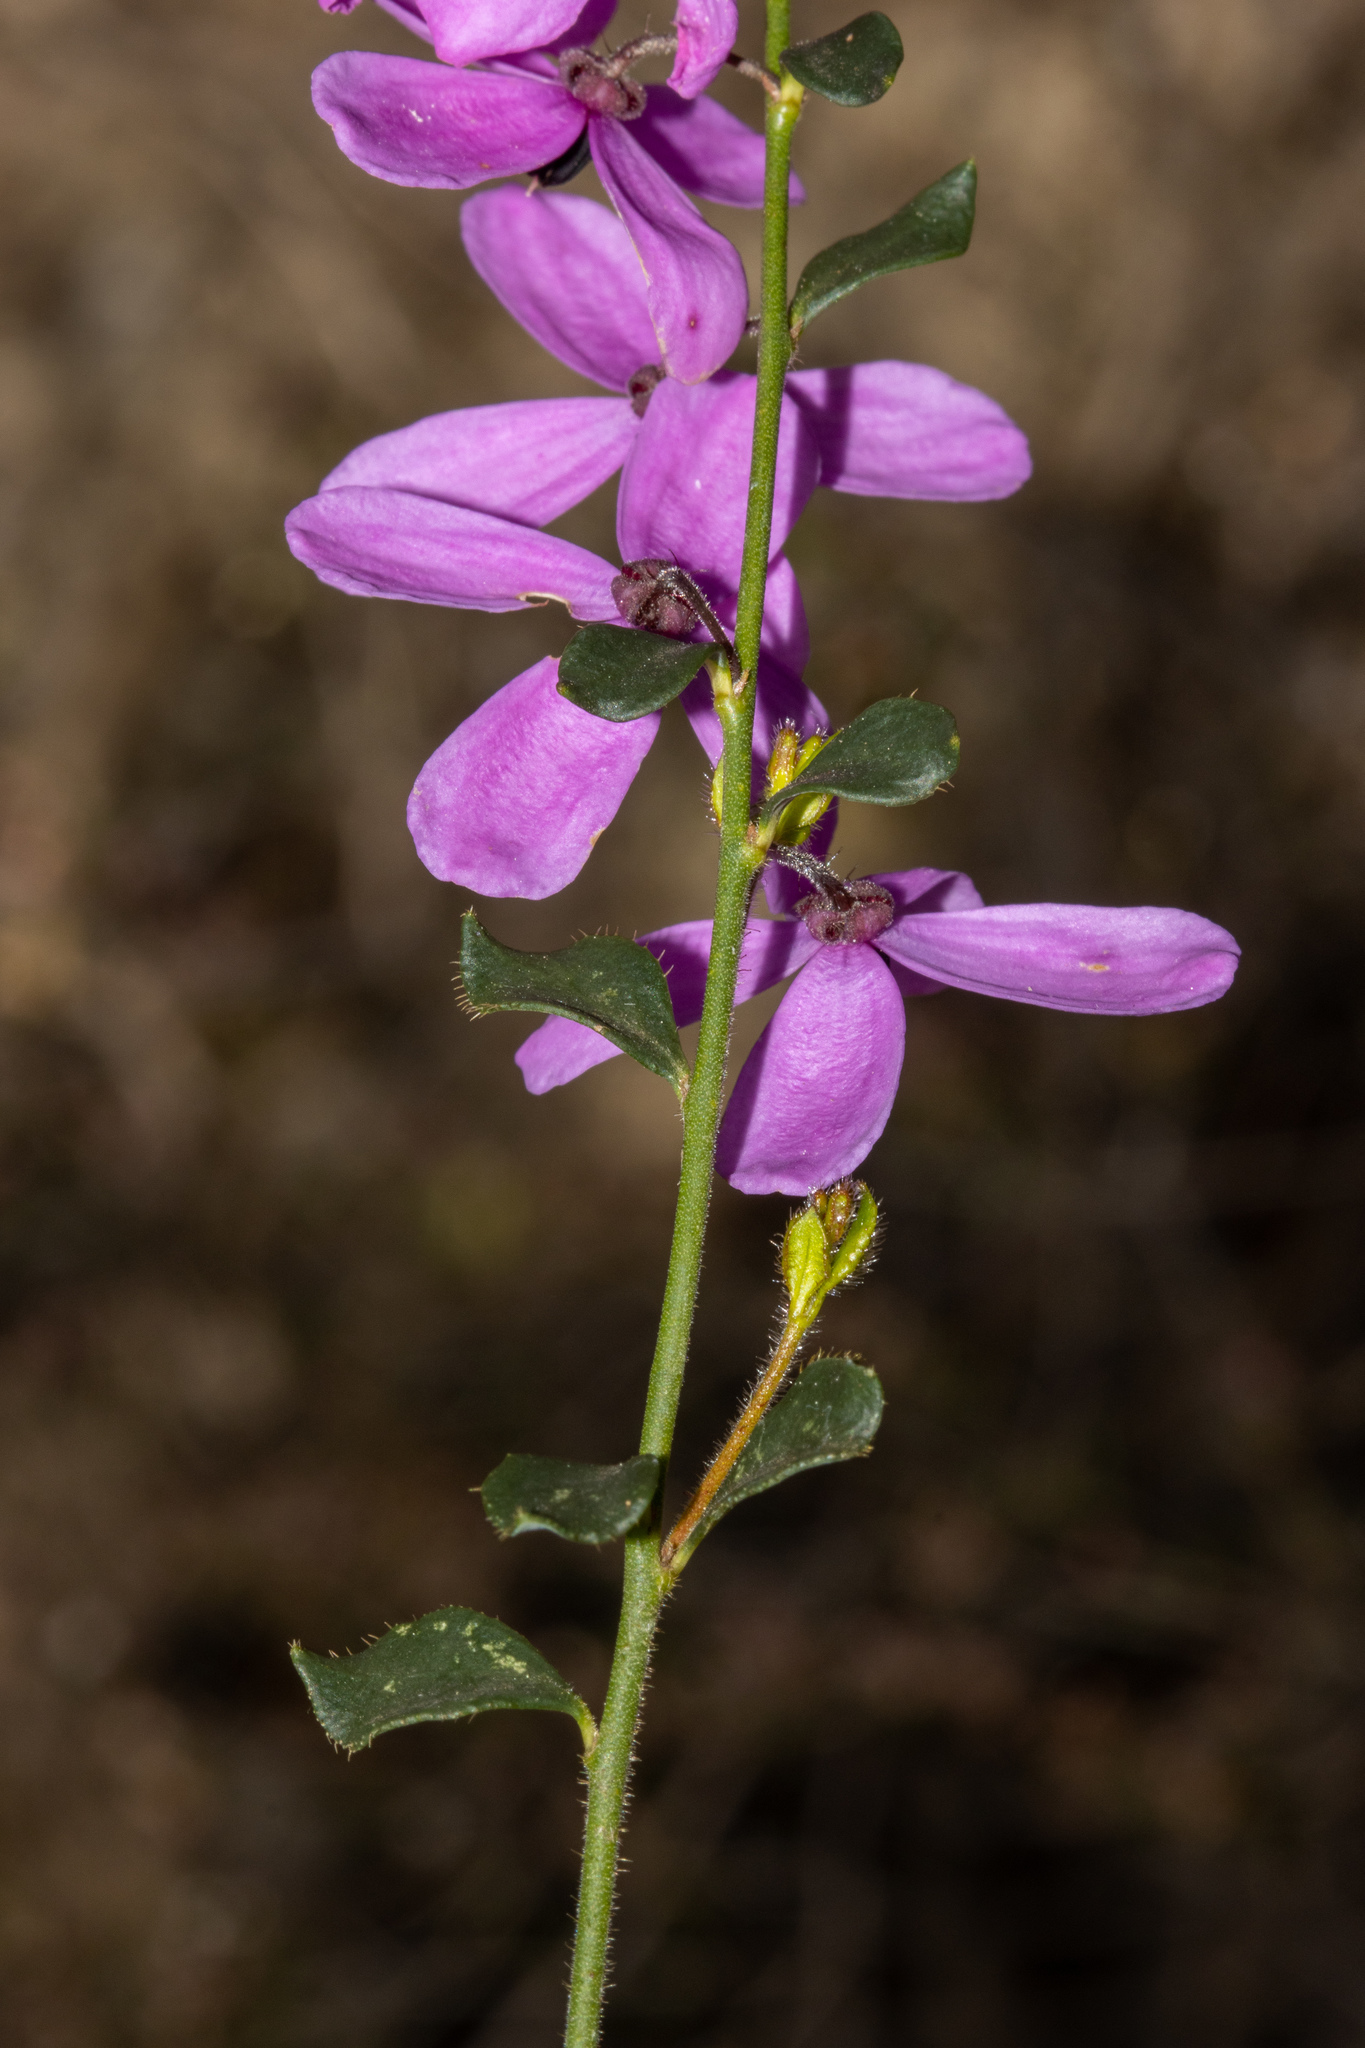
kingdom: Plantae
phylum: Tracheophyta
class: Magnoliopsida
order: Oxalidales
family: Elaeocarpaceae
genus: Tetratheca
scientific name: Tetratheca ciliata
